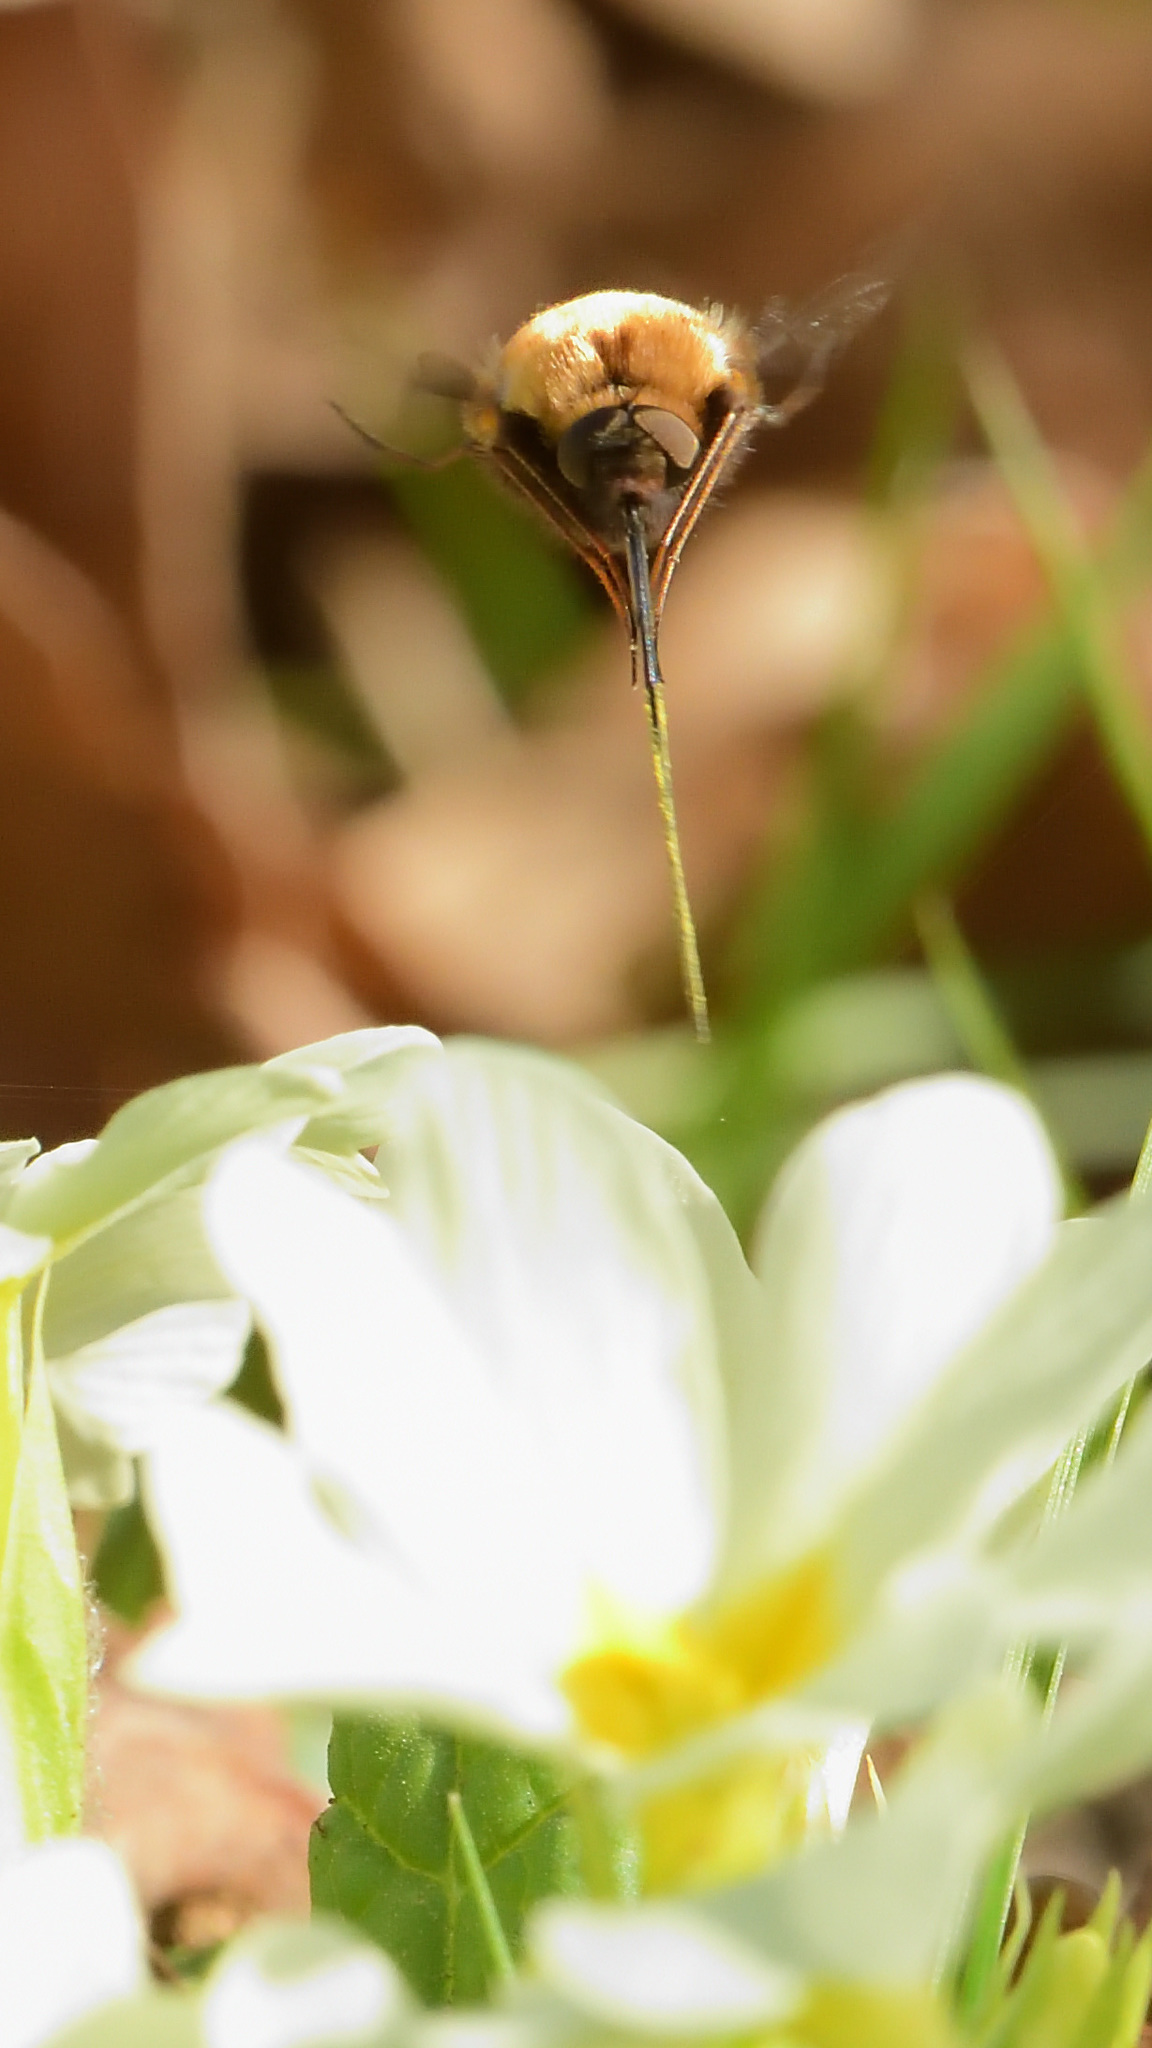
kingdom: Animalia
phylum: Arthropoda
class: Insecta
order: Diptera
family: Bombyliidae
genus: Bombylius
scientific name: Bombylius discolor
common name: Dotted bee-fly
